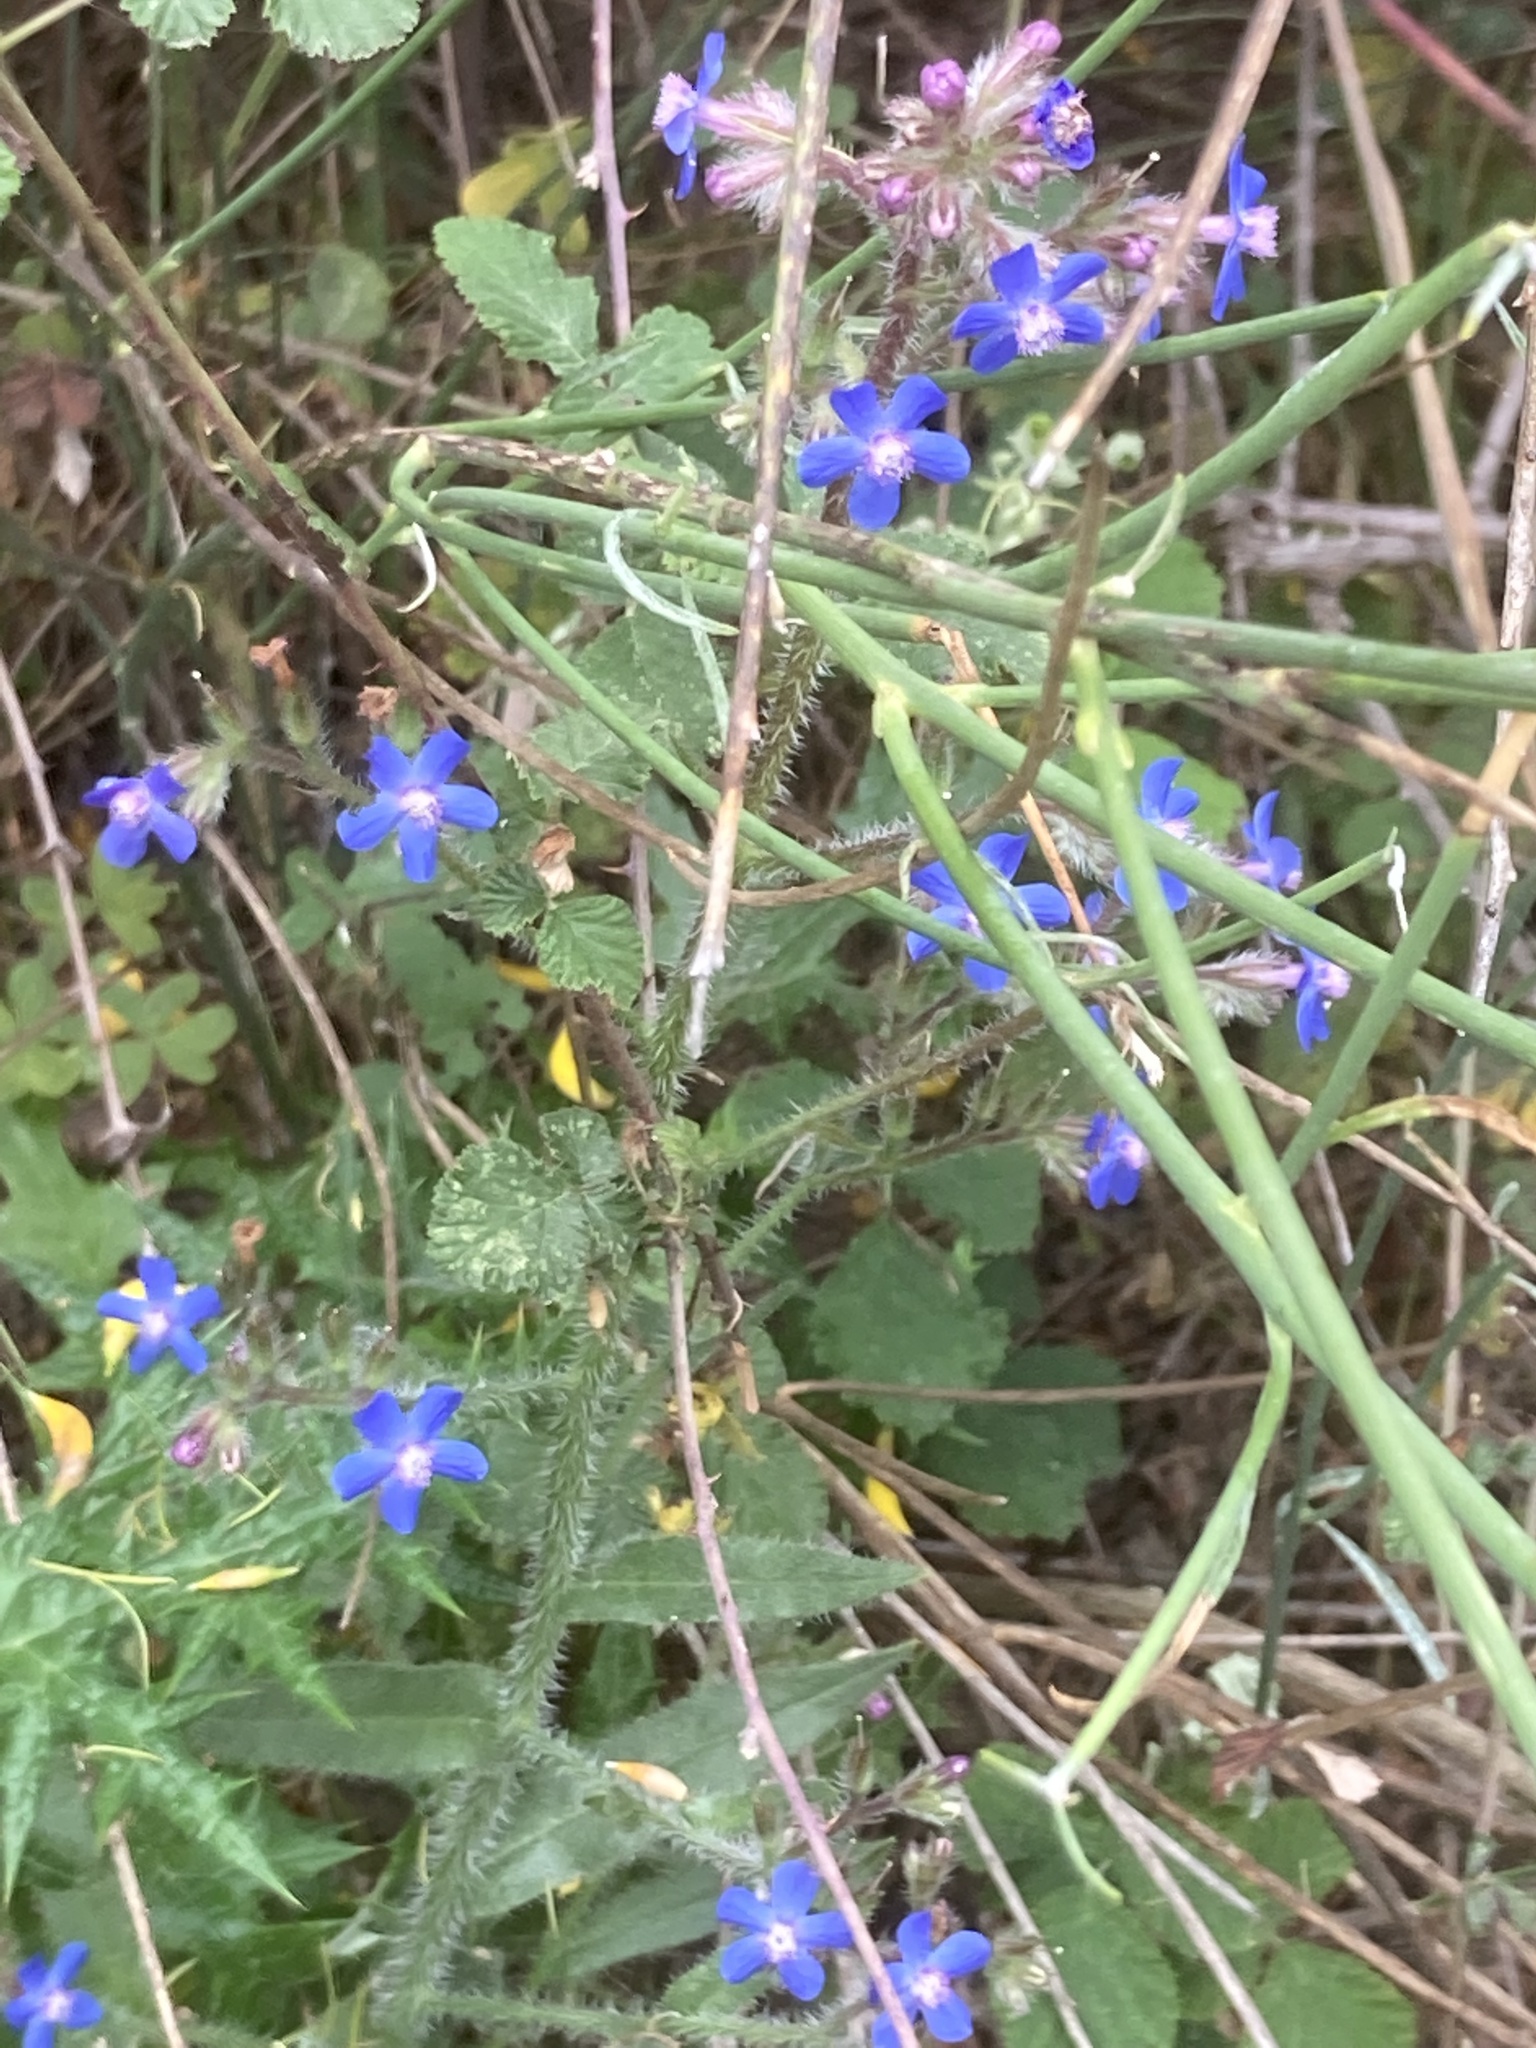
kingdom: Plantae
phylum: Tracheophyta
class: Magnoliopsida
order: Boraginales
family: Boraginaceae
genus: Anchusa
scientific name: Anchusa azurea
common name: Garden anchusa
